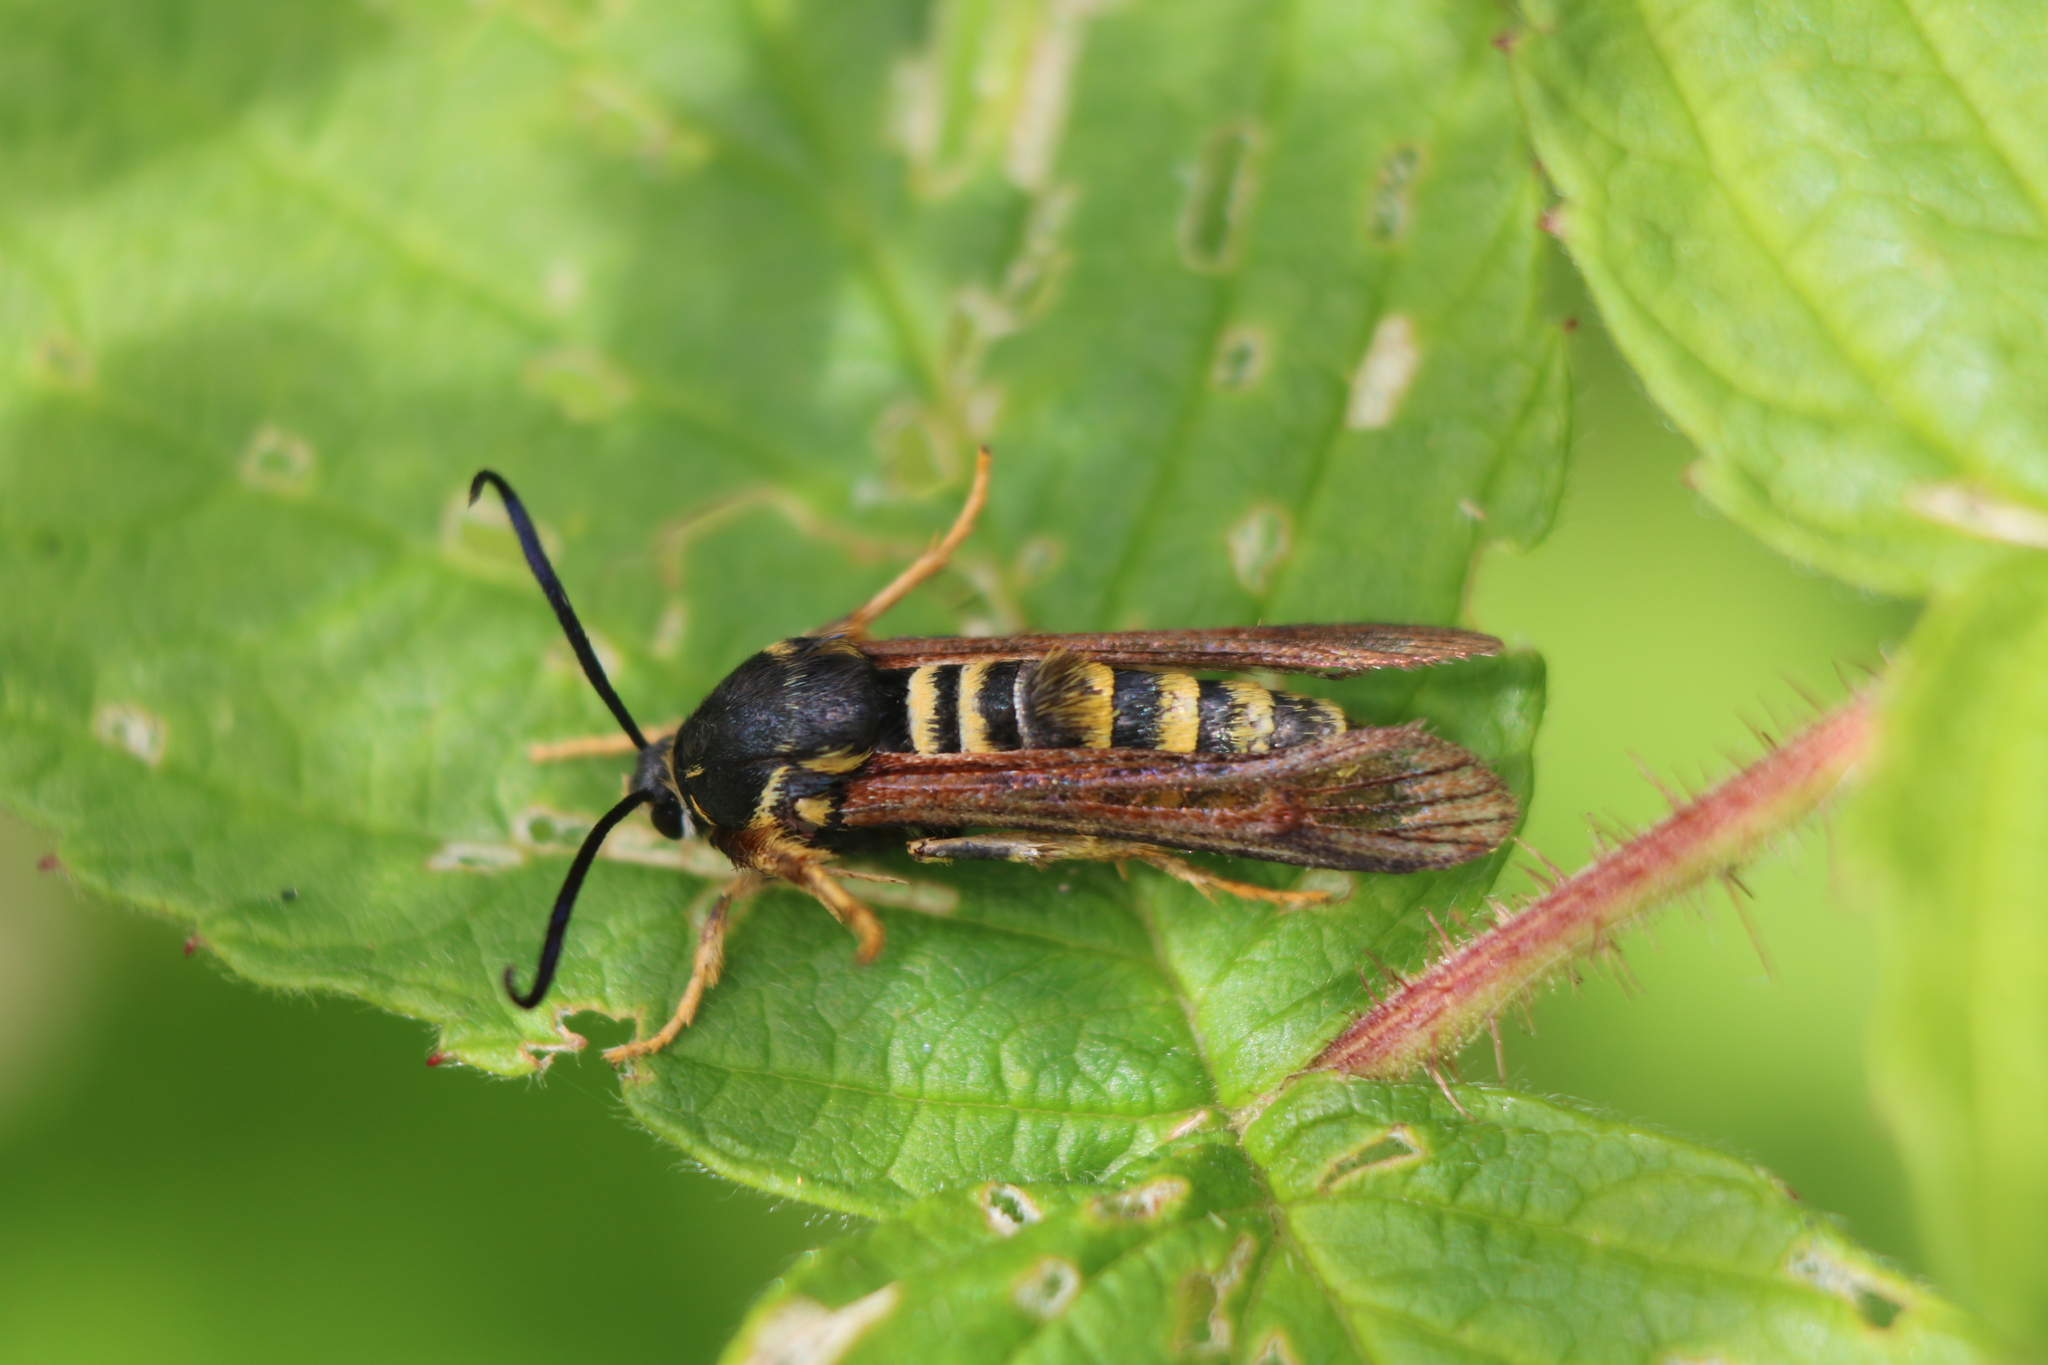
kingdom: Animalia
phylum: Arthropoda
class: Insecta
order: Lepidoptera
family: Sesiidae
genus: Pennisetia
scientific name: Pennisetia marginatum
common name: Raspberry crown borer
